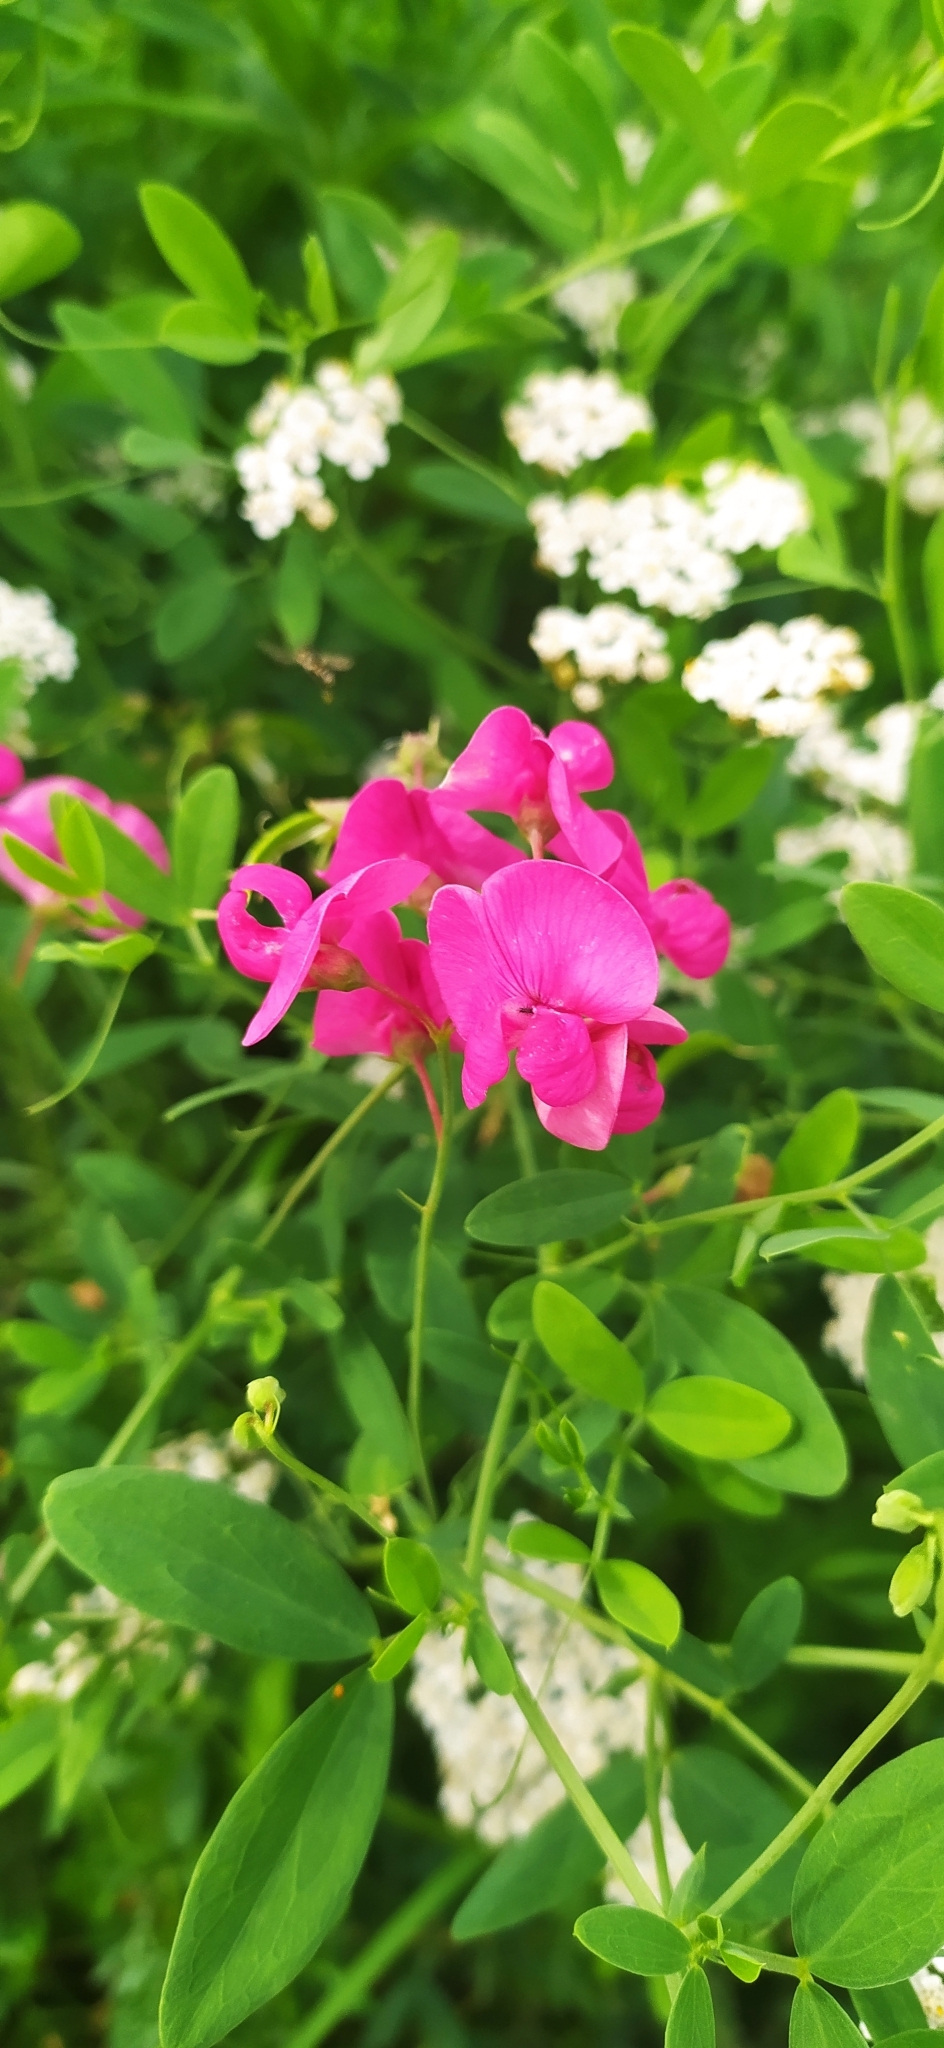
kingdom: Plantae
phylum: Tracheophyta
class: Magnoliopsida
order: Fabales
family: Fabaceae
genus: Lathyrus
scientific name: Lathyrus tuberosus
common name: Tuberous pea
